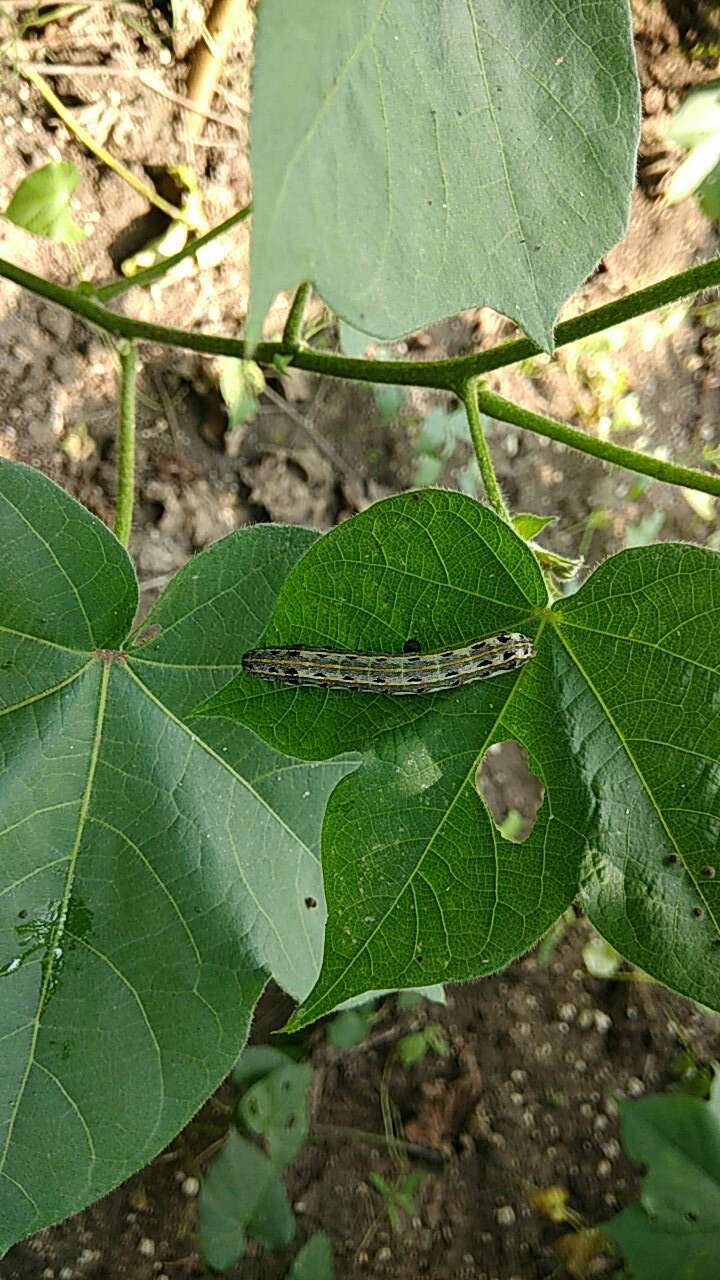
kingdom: Animalia
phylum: Arthropoda
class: Insecta
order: Lepidoptera
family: Noctuidae
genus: Spodoptera
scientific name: Spodoptera litura
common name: Asian cotton leafworm
